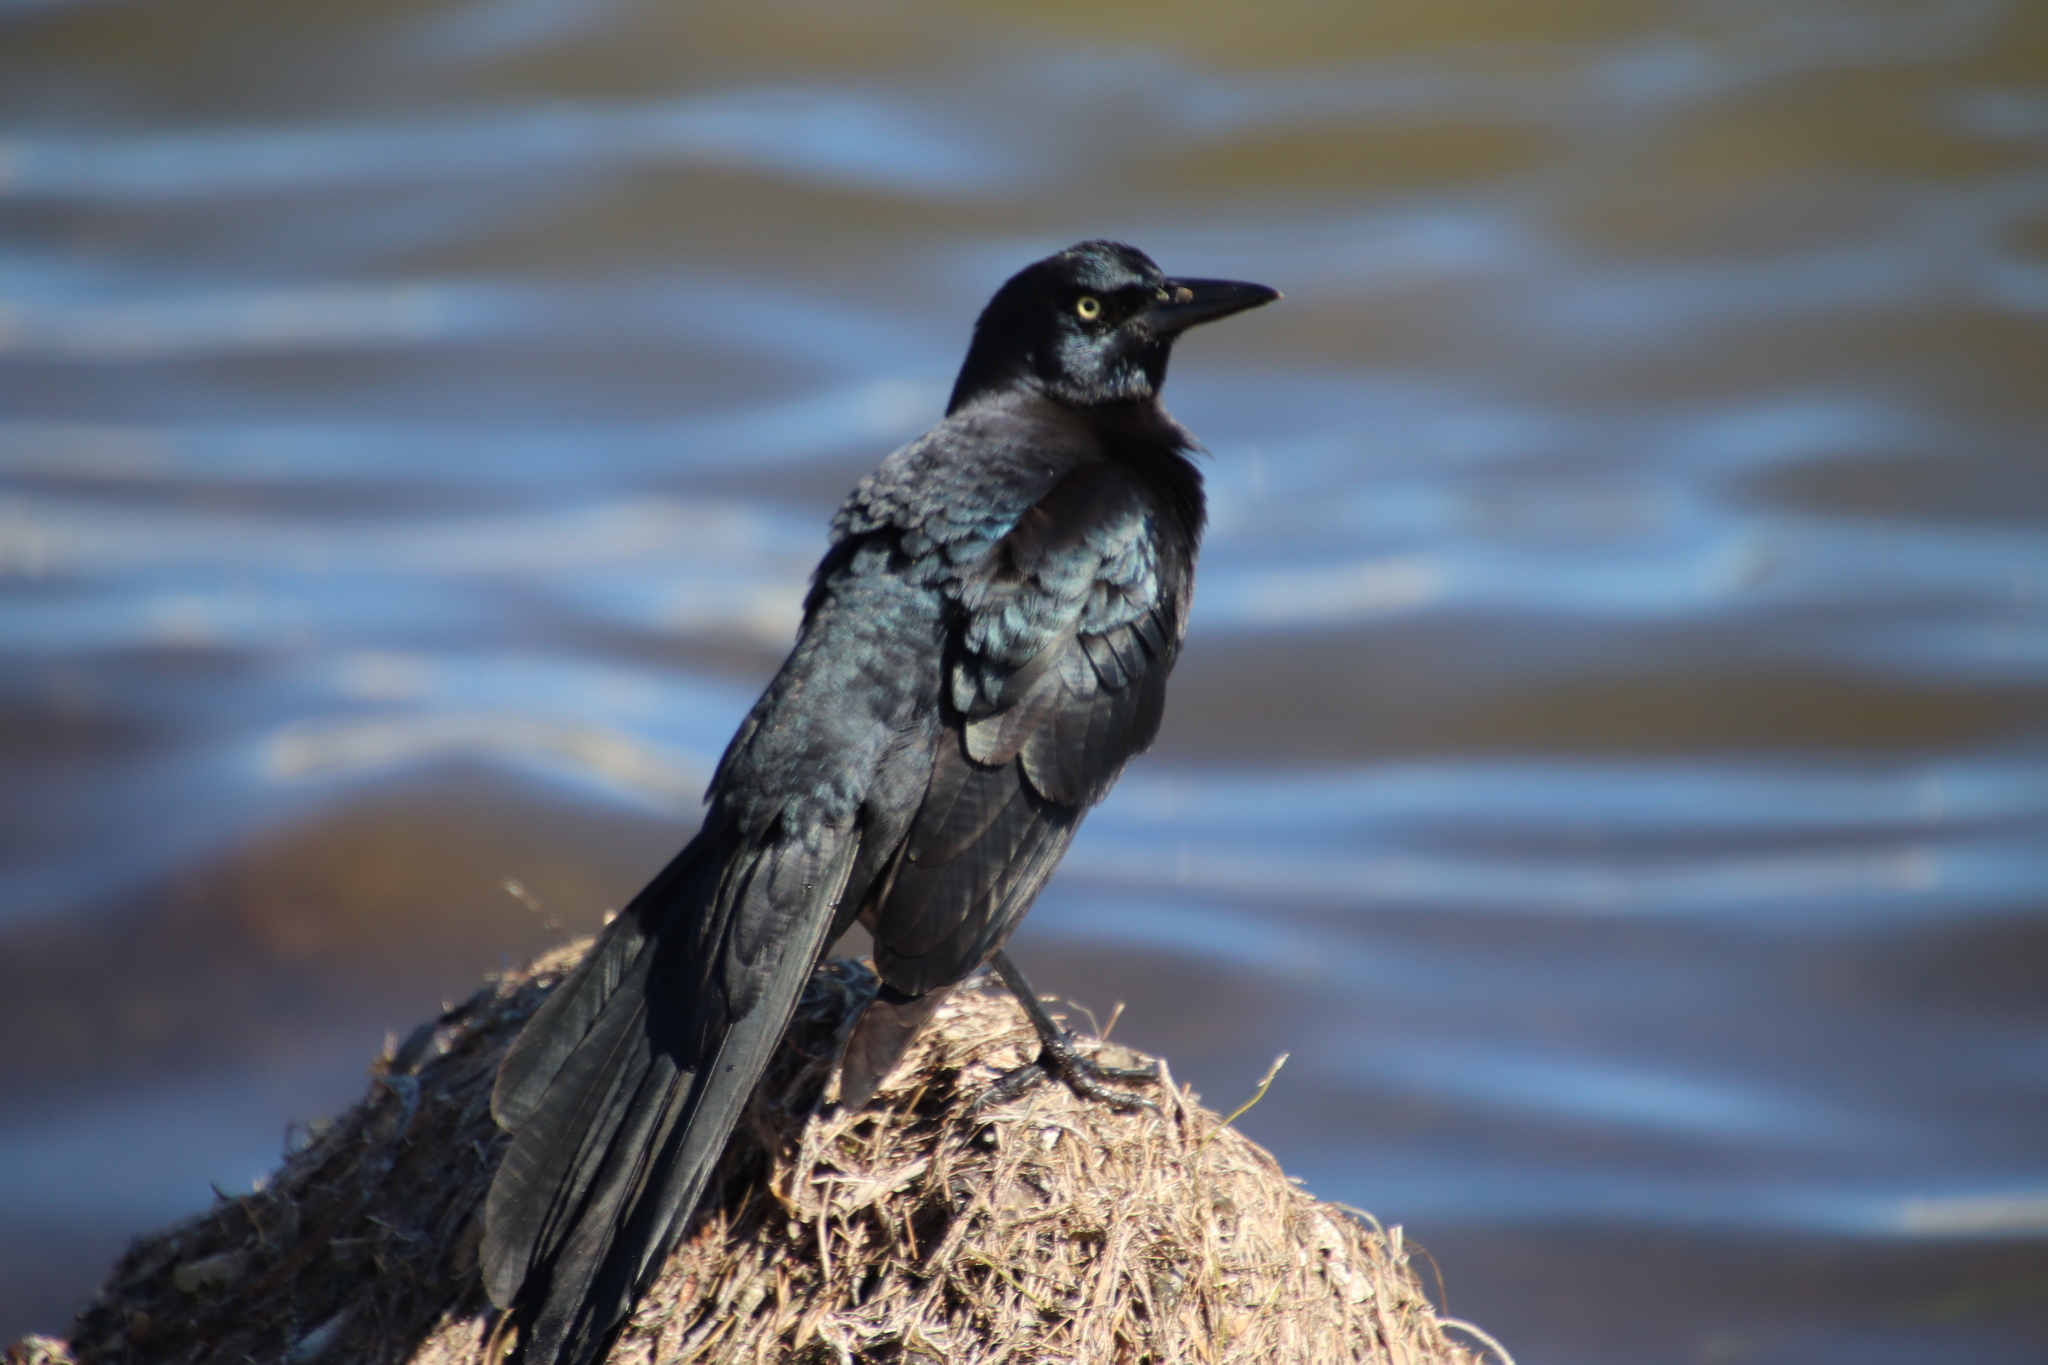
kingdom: Animalia
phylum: Chordata
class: Aves
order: Passeriformes
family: Icteridae
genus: Quiscalus
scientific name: Quiscalus mexicanus
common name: Great-tailed grackle
